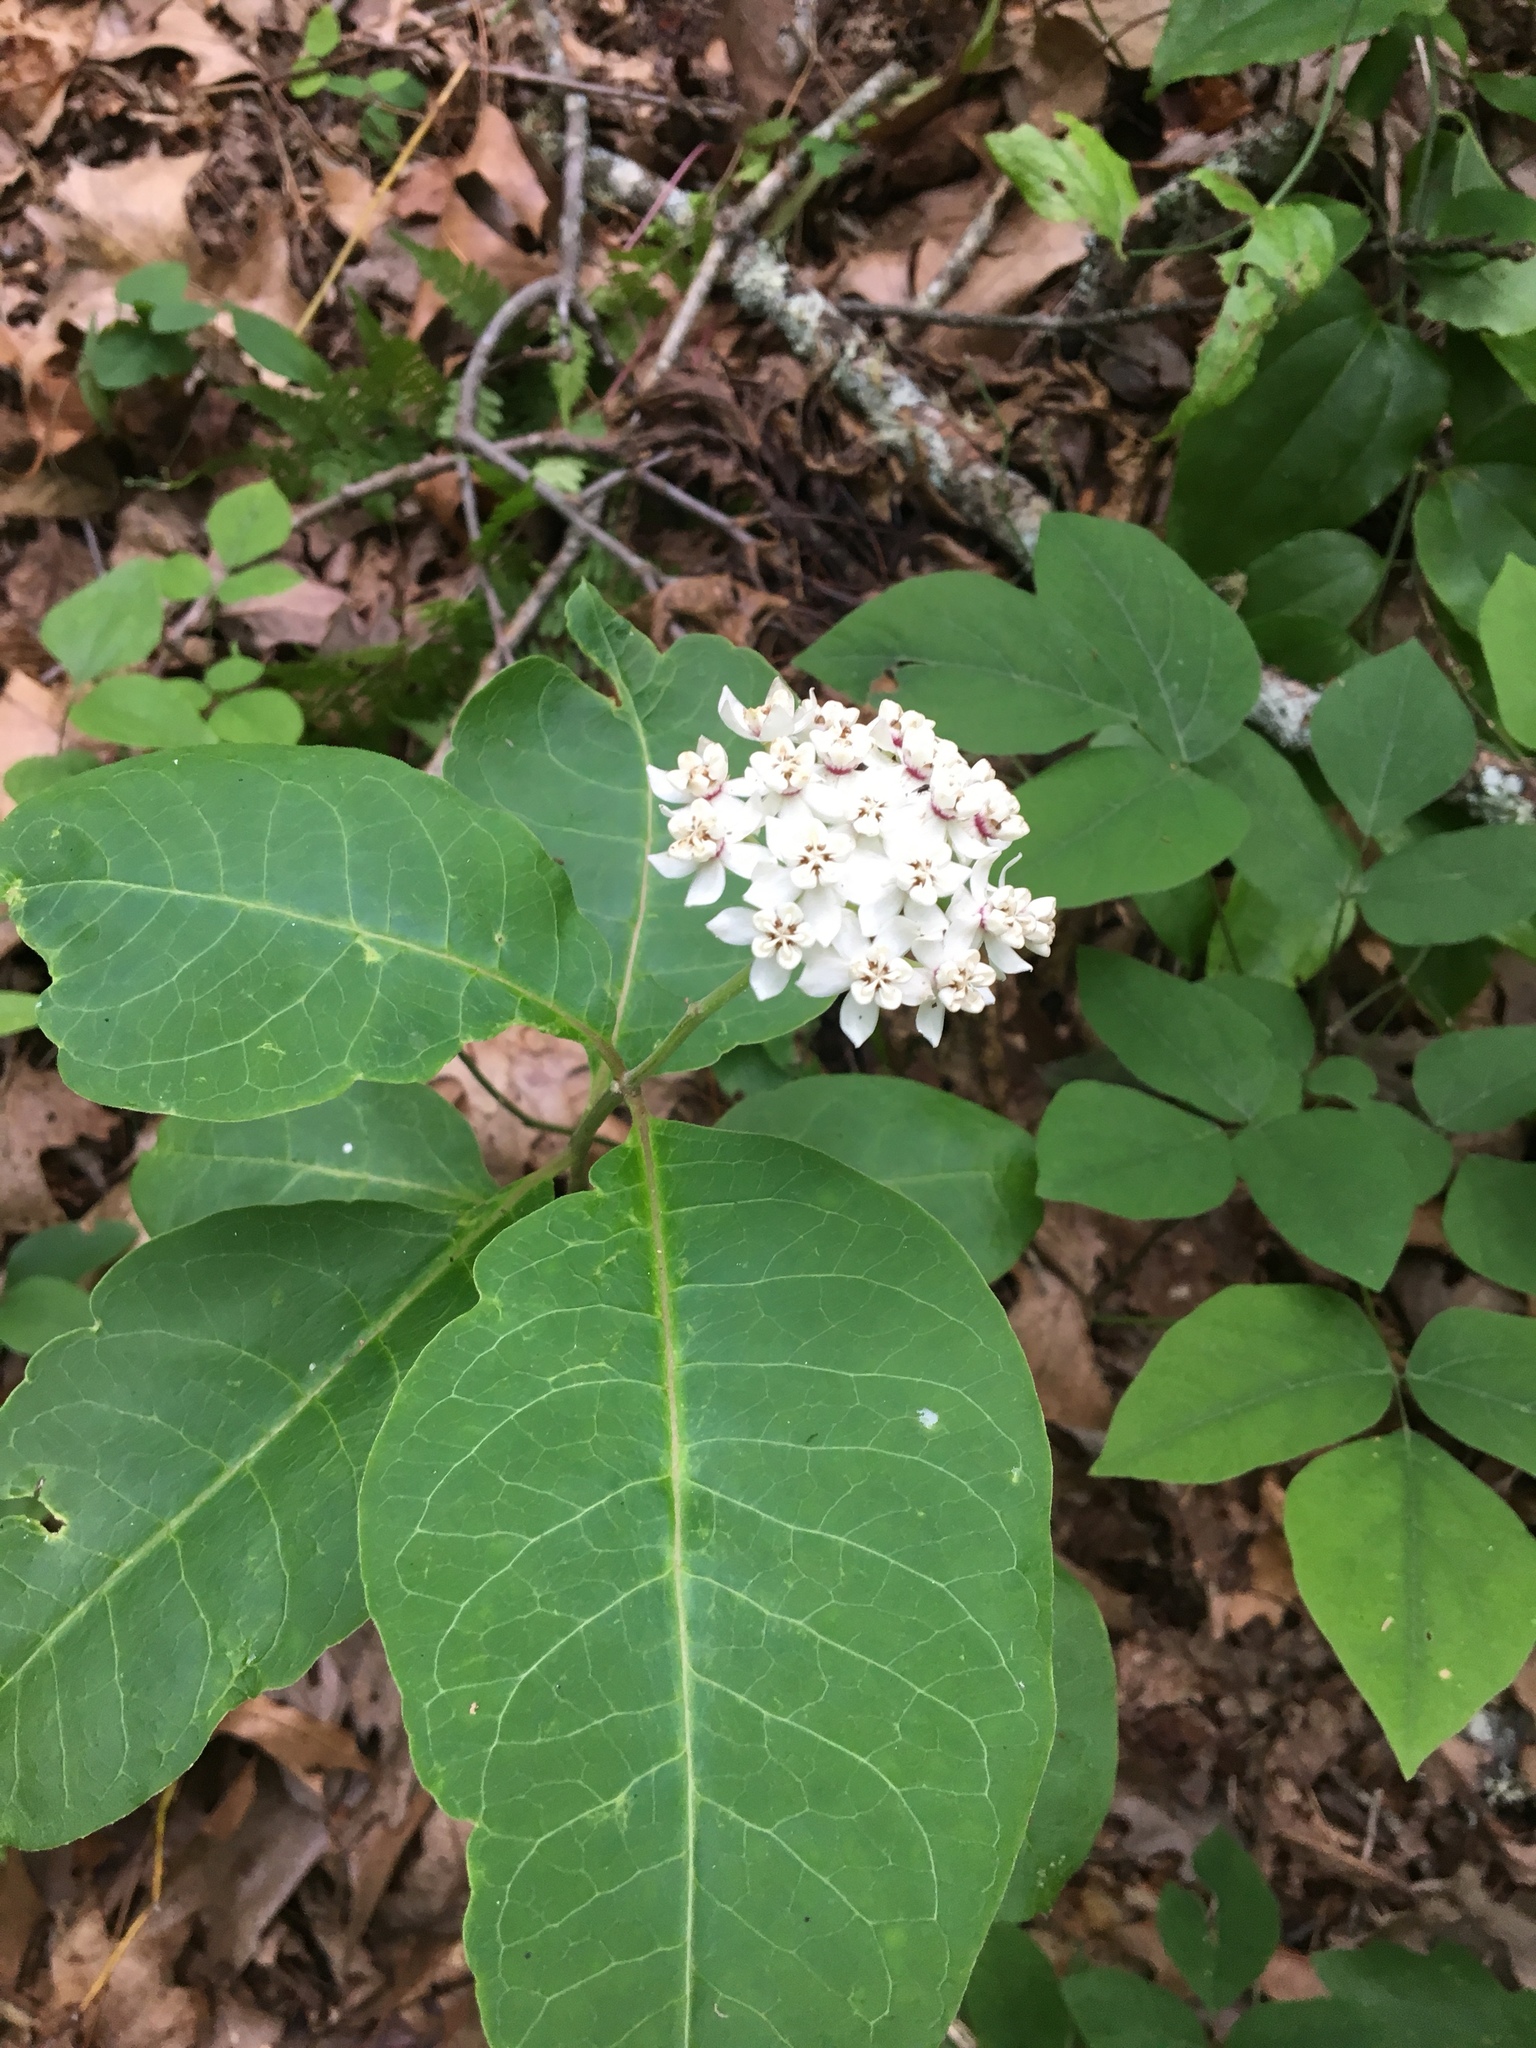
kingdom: Plantae
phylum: Tracheophyta
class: Magnoliopsida
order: Gentianales
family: Apocynaceae
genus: Asclepias
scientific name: Asclepias variegata
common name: Variegated milkweed
